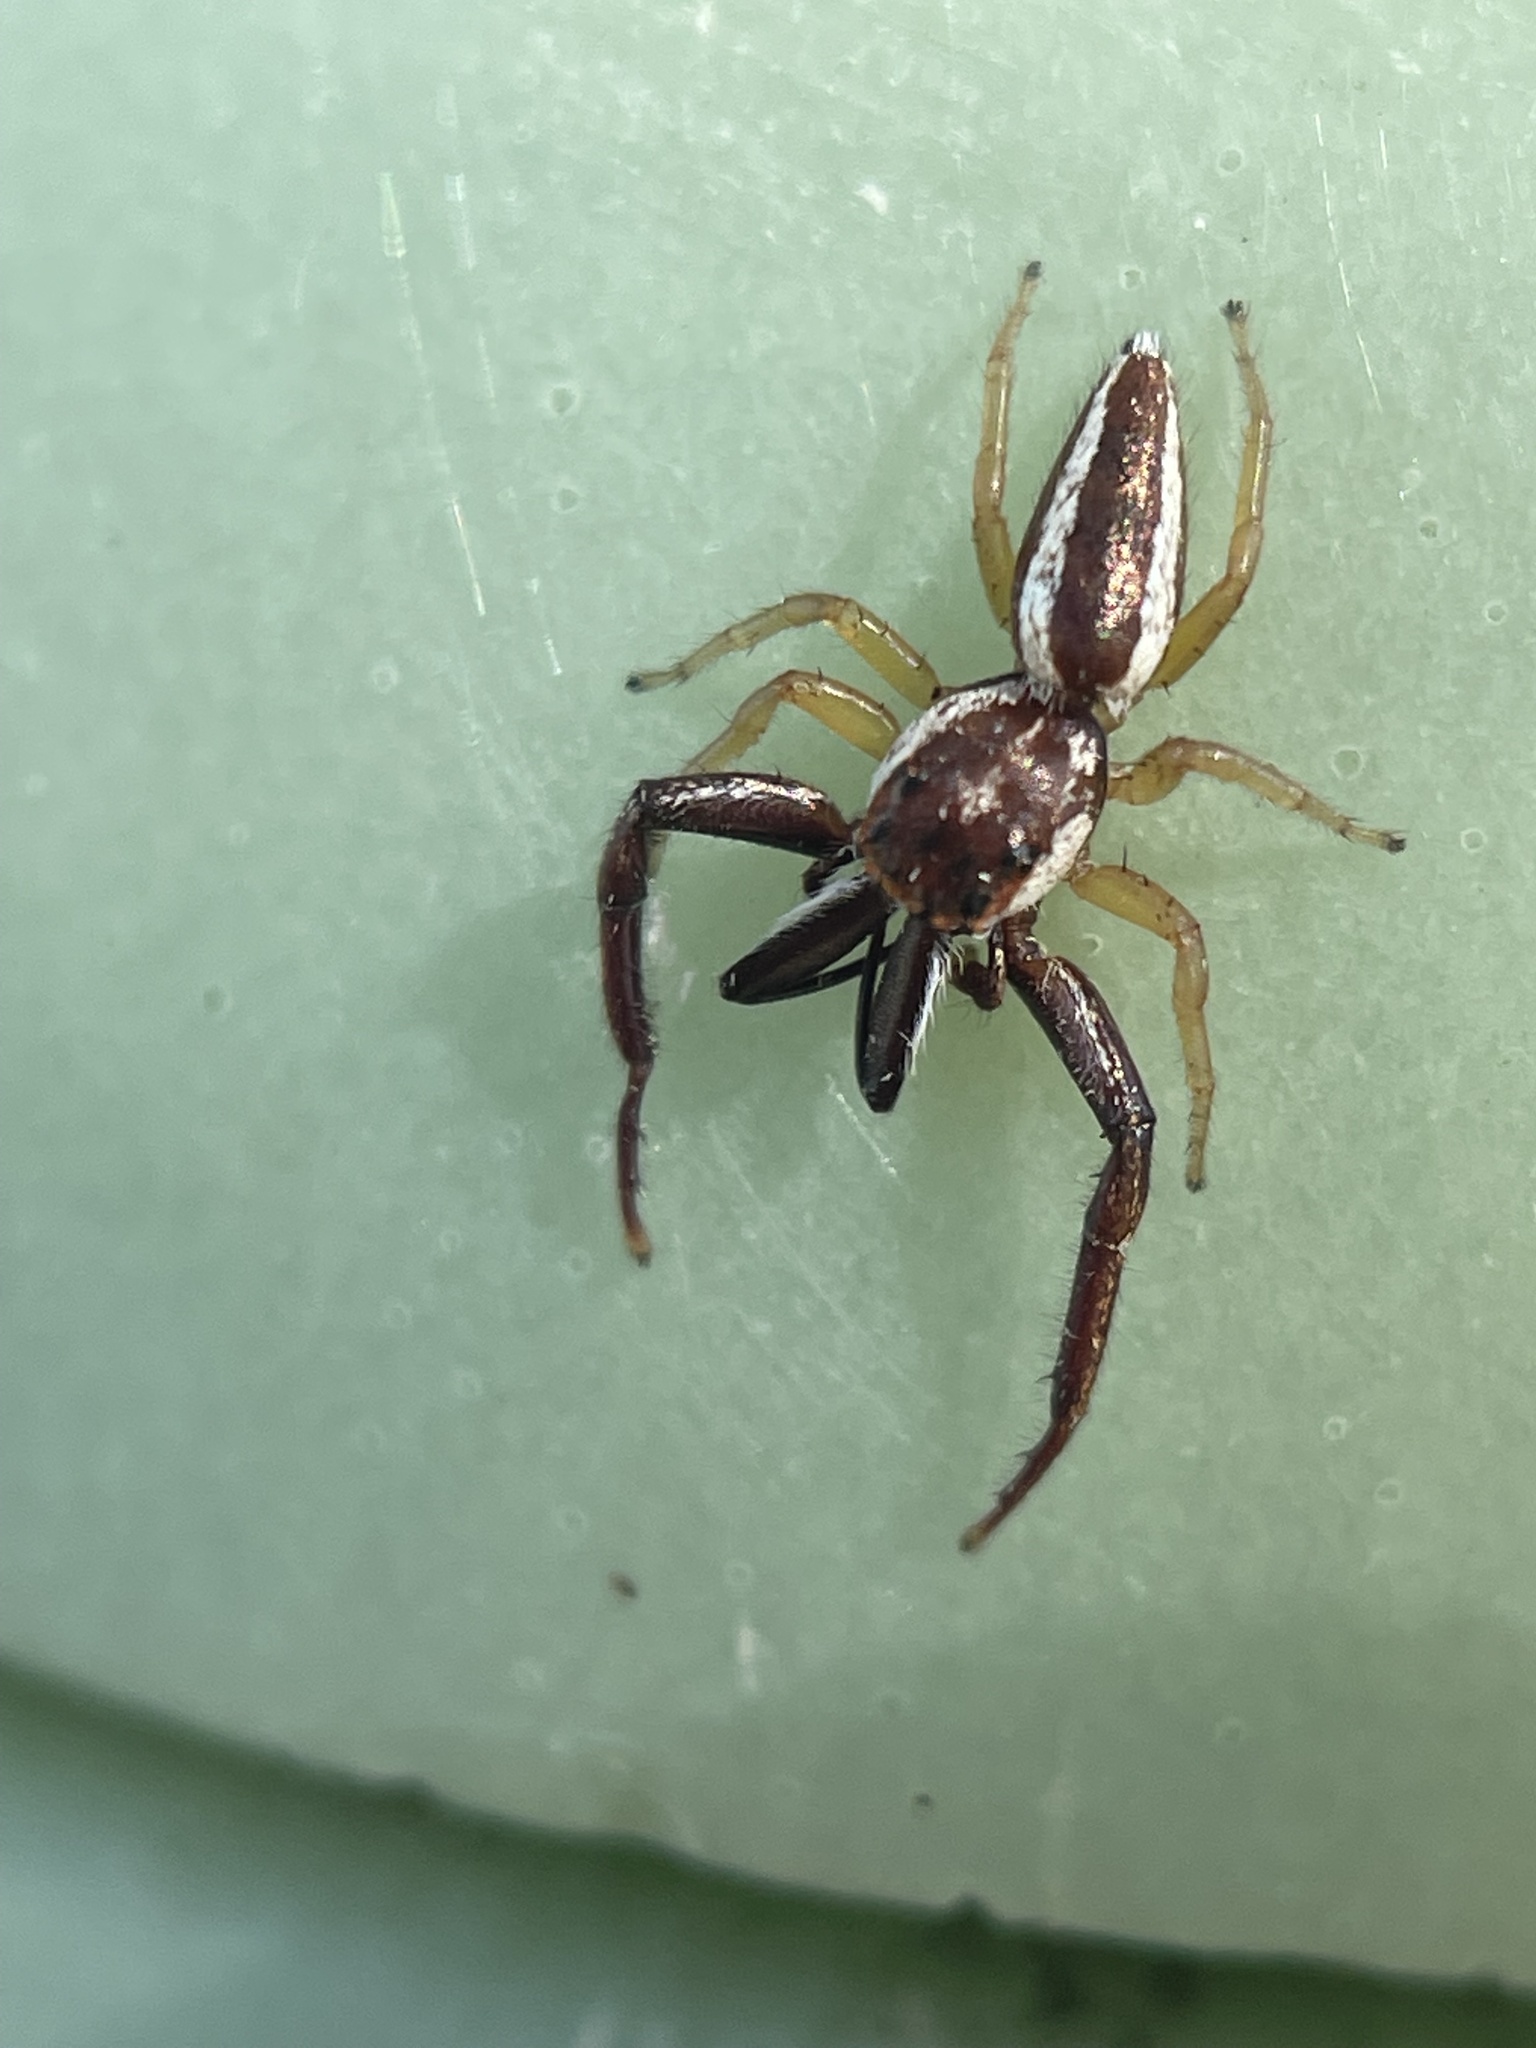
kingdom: Animalia
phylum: Arthropoda
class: Arachnida
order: Araneae
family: Salticidae
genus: Hentzia
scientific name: Hentzia palmarum
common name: Common hentz jumping spider
